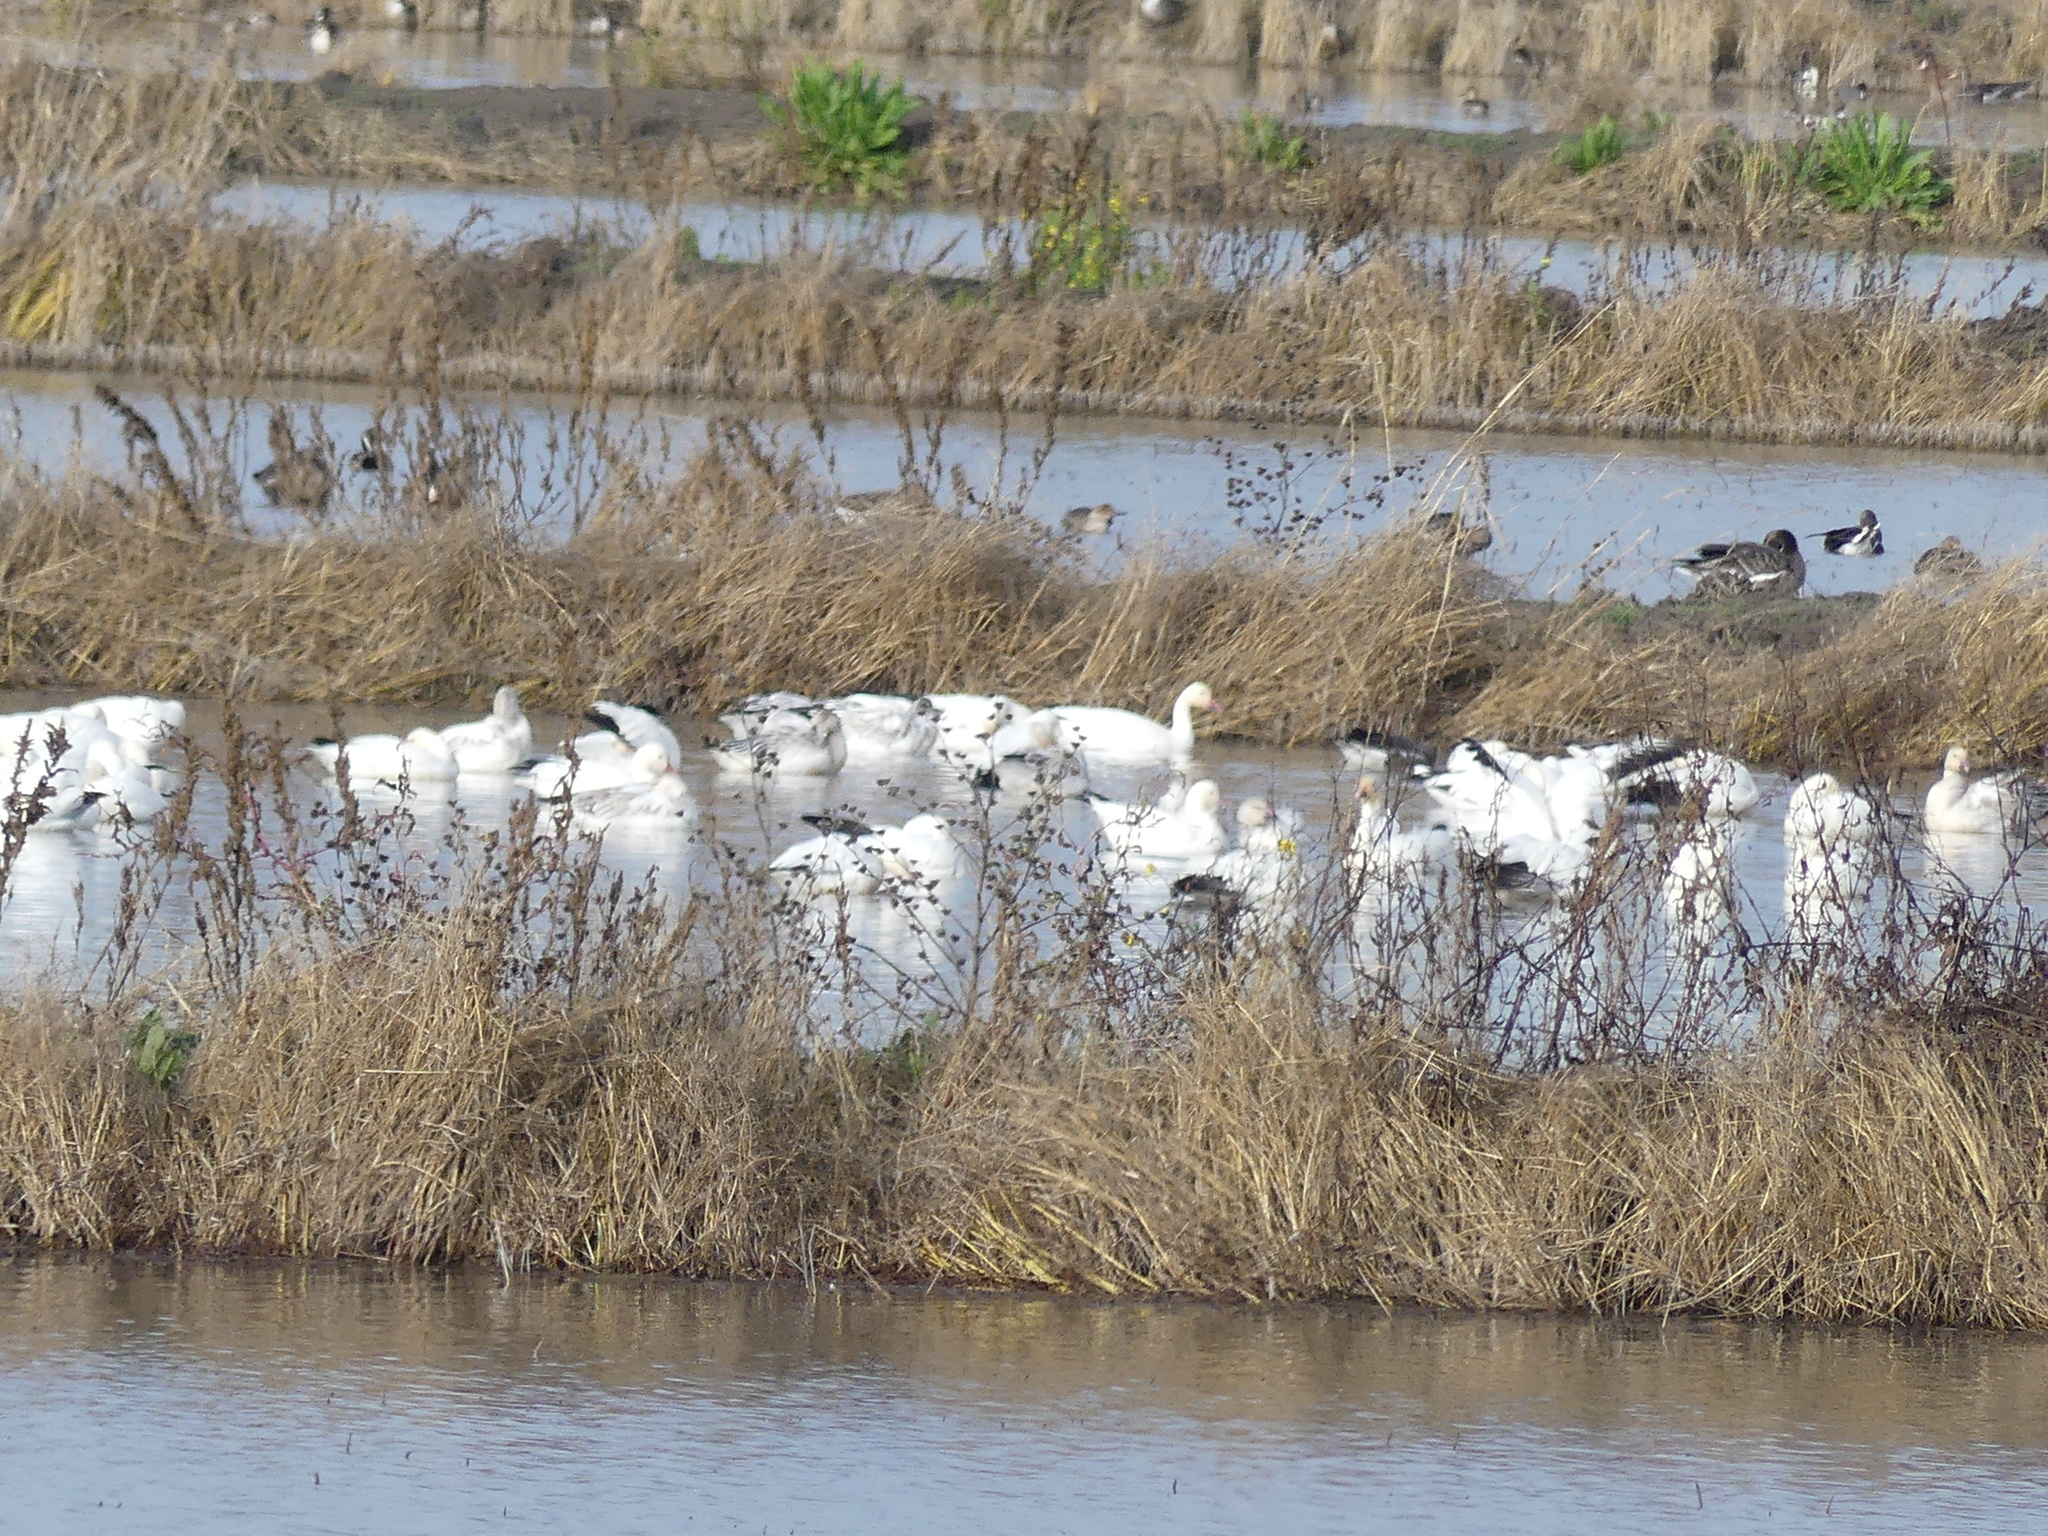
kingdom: Animalia
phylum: Chordata
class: Aves
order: Anseriformes
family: Anatidae
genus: Anser
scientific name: Anser caerulescens
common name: Snow goose
